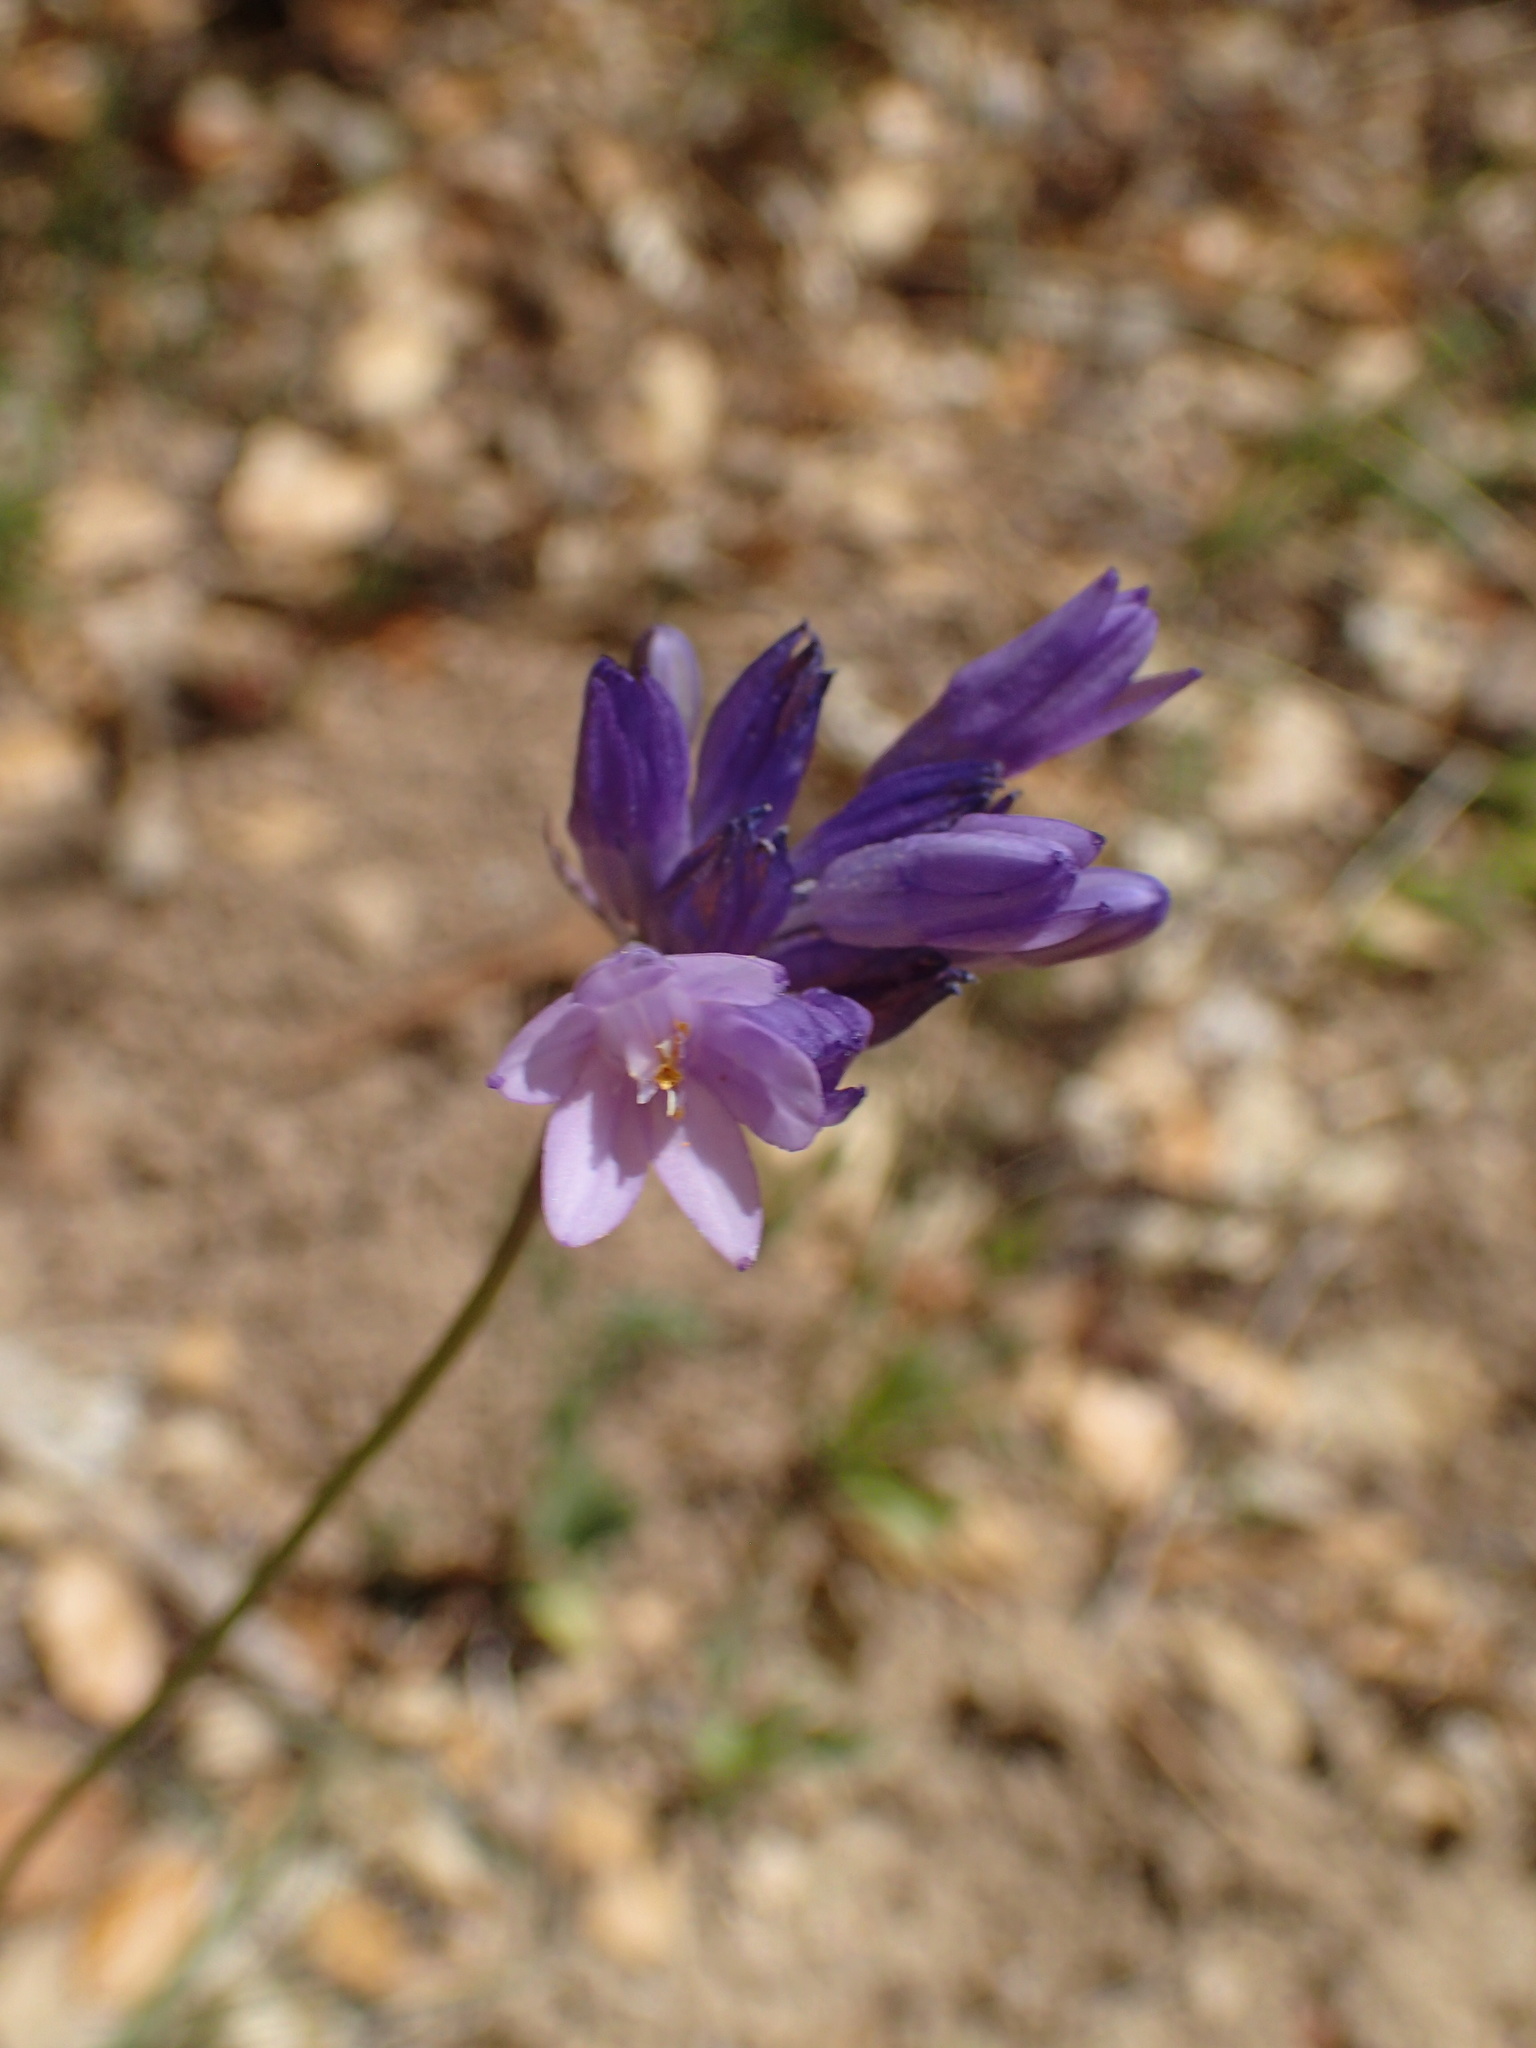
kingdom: Plantae
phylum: Tracheophyta
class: Liliopsida
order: Asparagales
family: Asparagaceae
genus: Dipterostemon
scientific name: Dipterostemon capitatus
